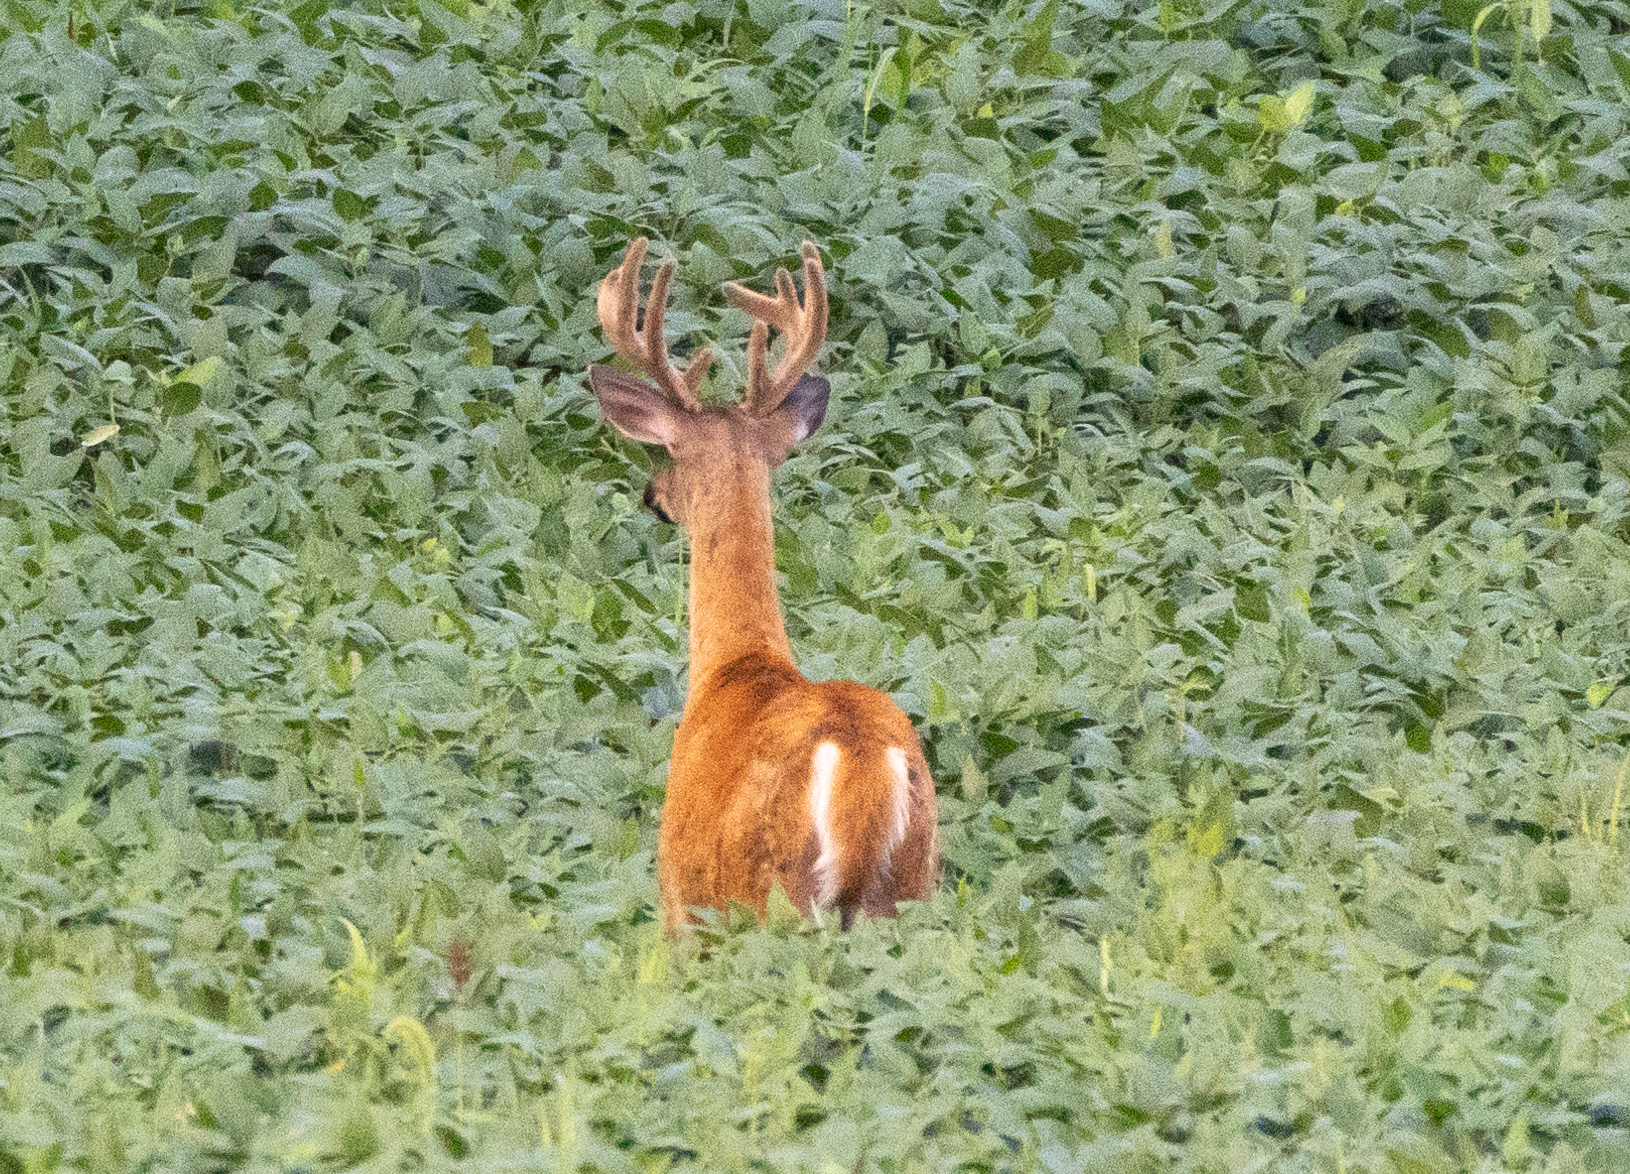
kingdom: Animalia
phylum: Chordata
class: Mammalia
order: Artiodactyla
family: Cervidae
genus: Odocoileus
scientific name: Odocoileus virginianus
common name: White-tailed deer
